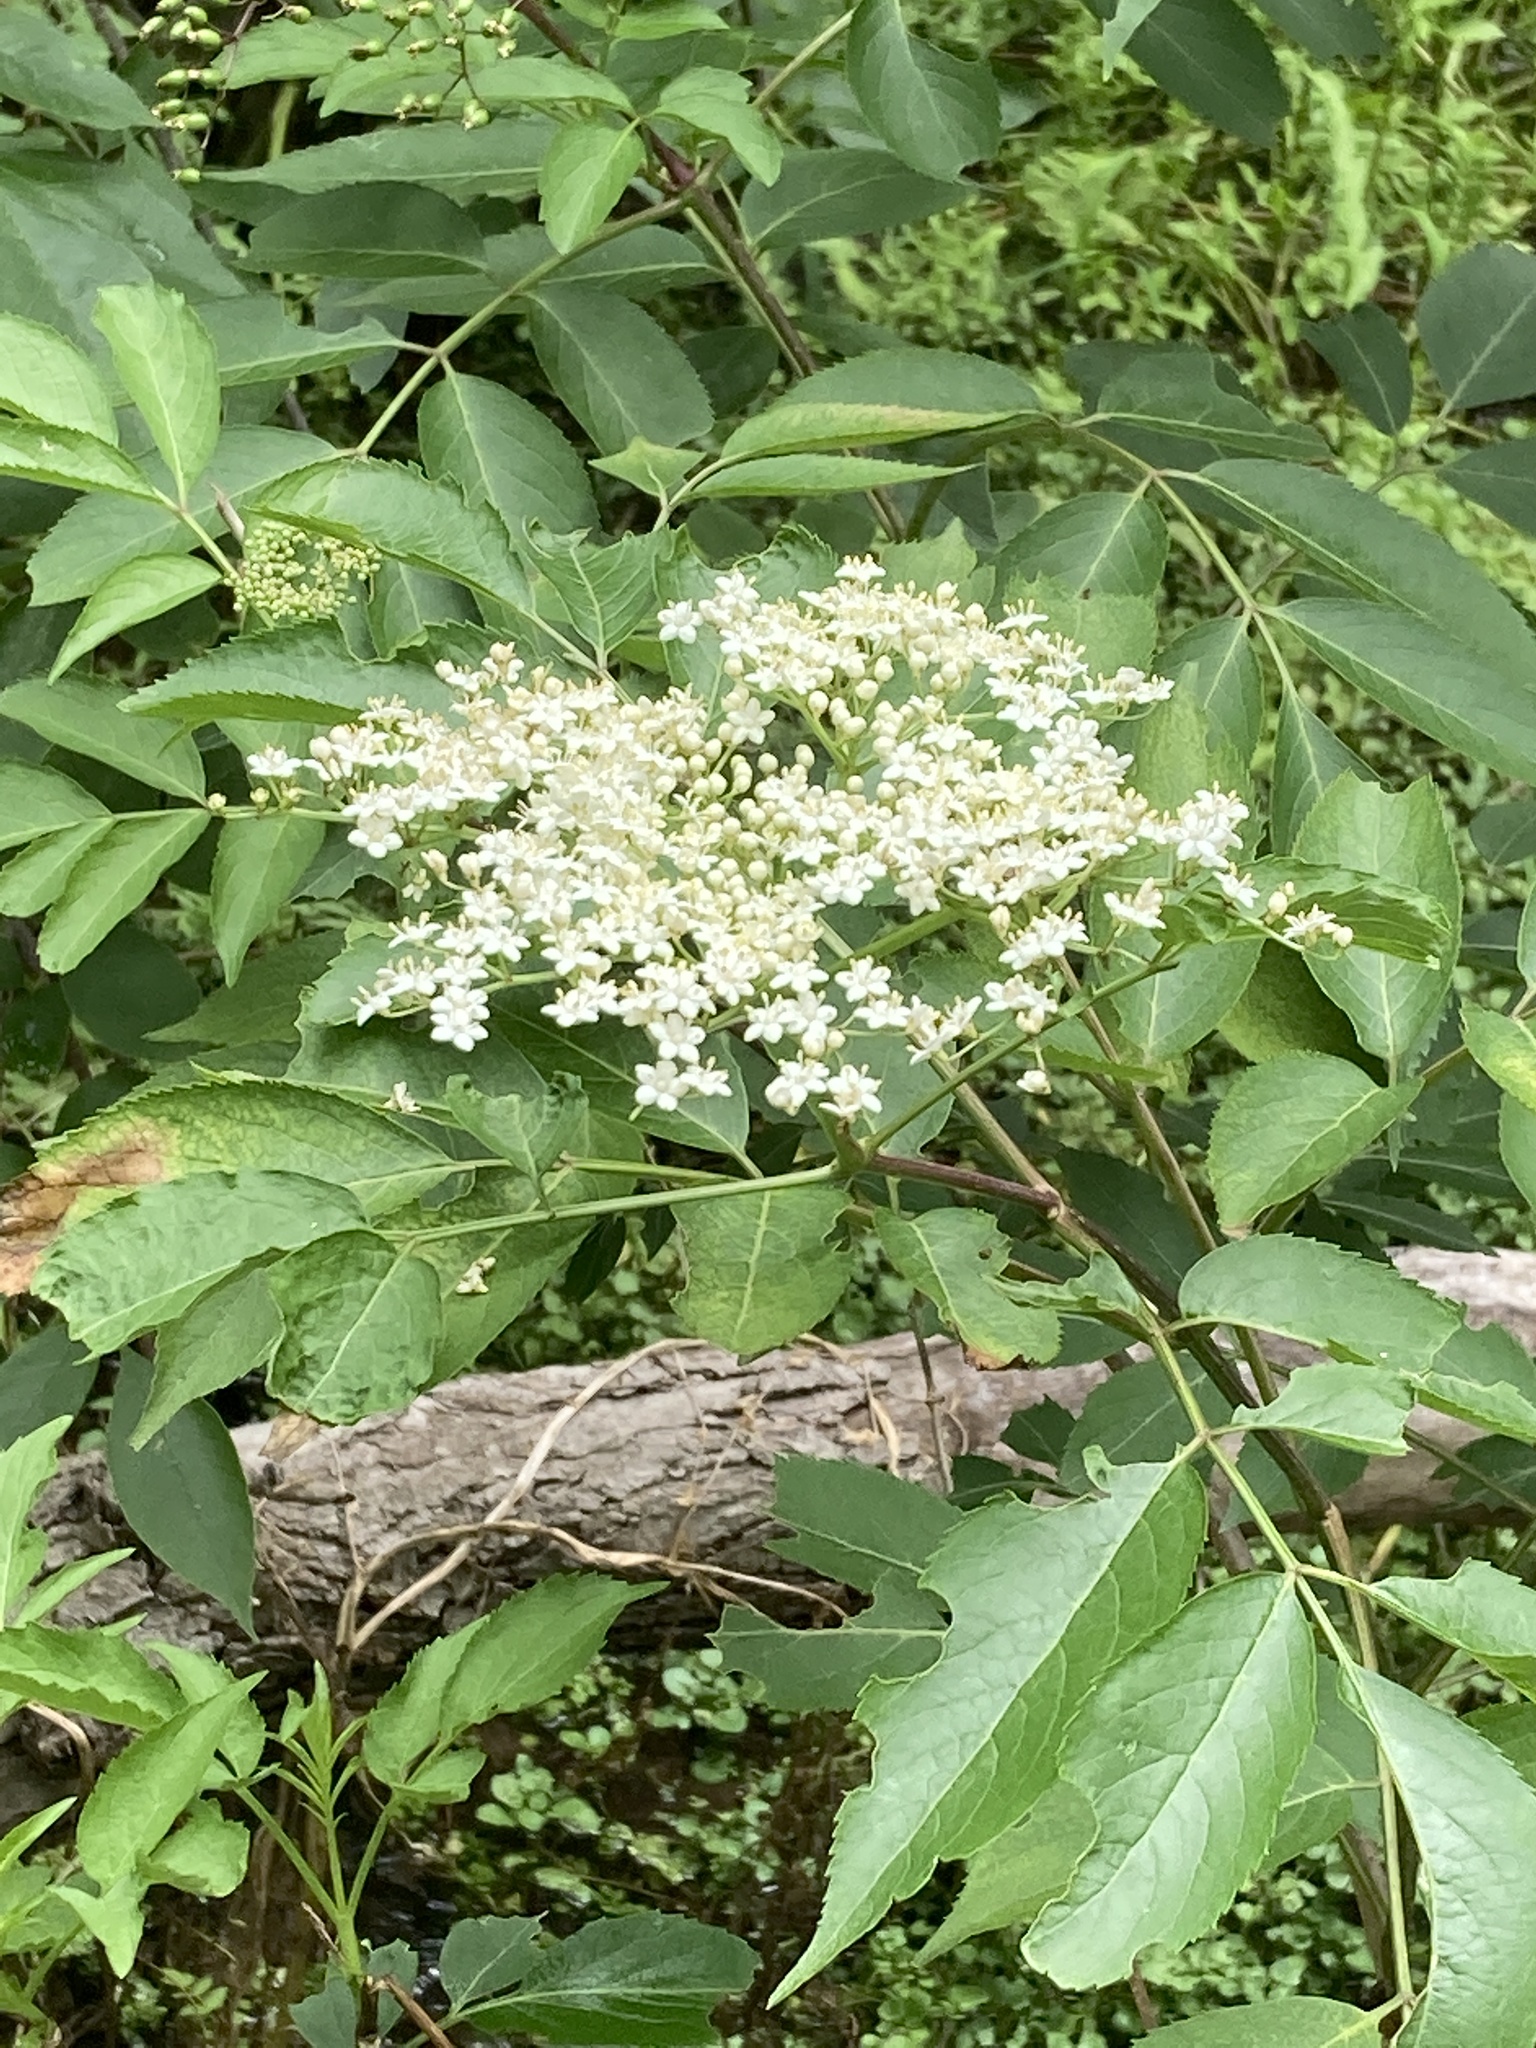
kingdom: Plantae
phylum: Tracheophyta
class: Magnoliopsida
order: Dipsacales
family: Viburnaceae
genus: Sambucus
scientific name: Sambucus canadensis
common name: American elder
